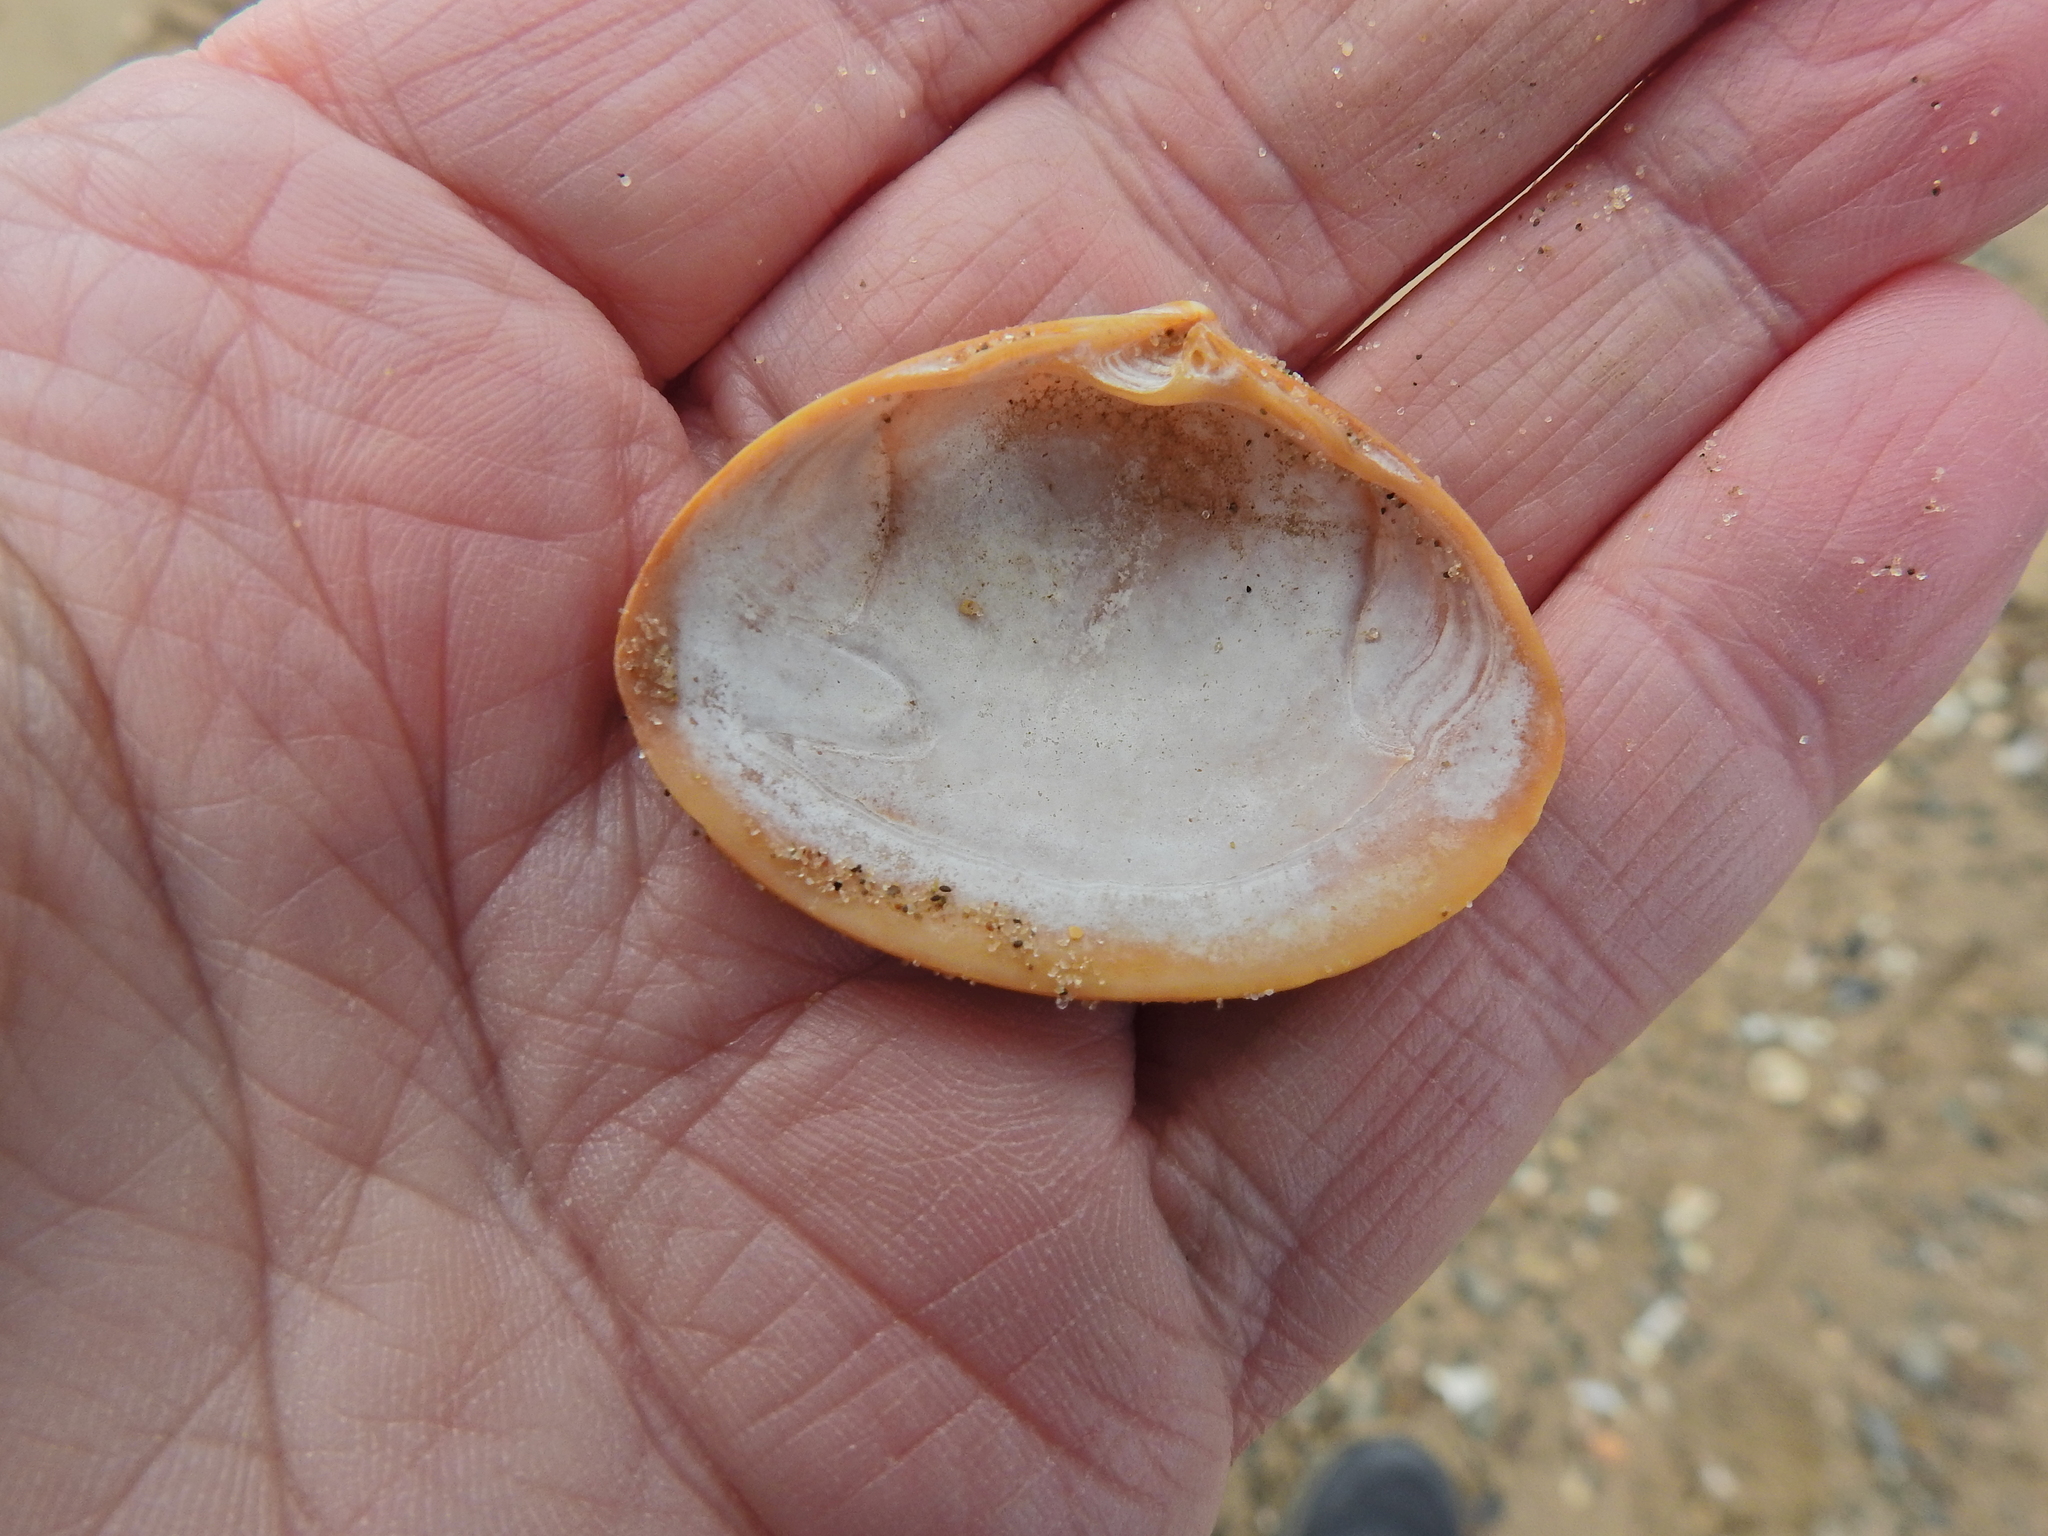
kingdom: Animalia
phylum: Mollusca
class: Bivalvia
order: Venerida
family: Mactridae
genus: Spisula
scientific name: Spisula solida
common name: Thick trough shell
